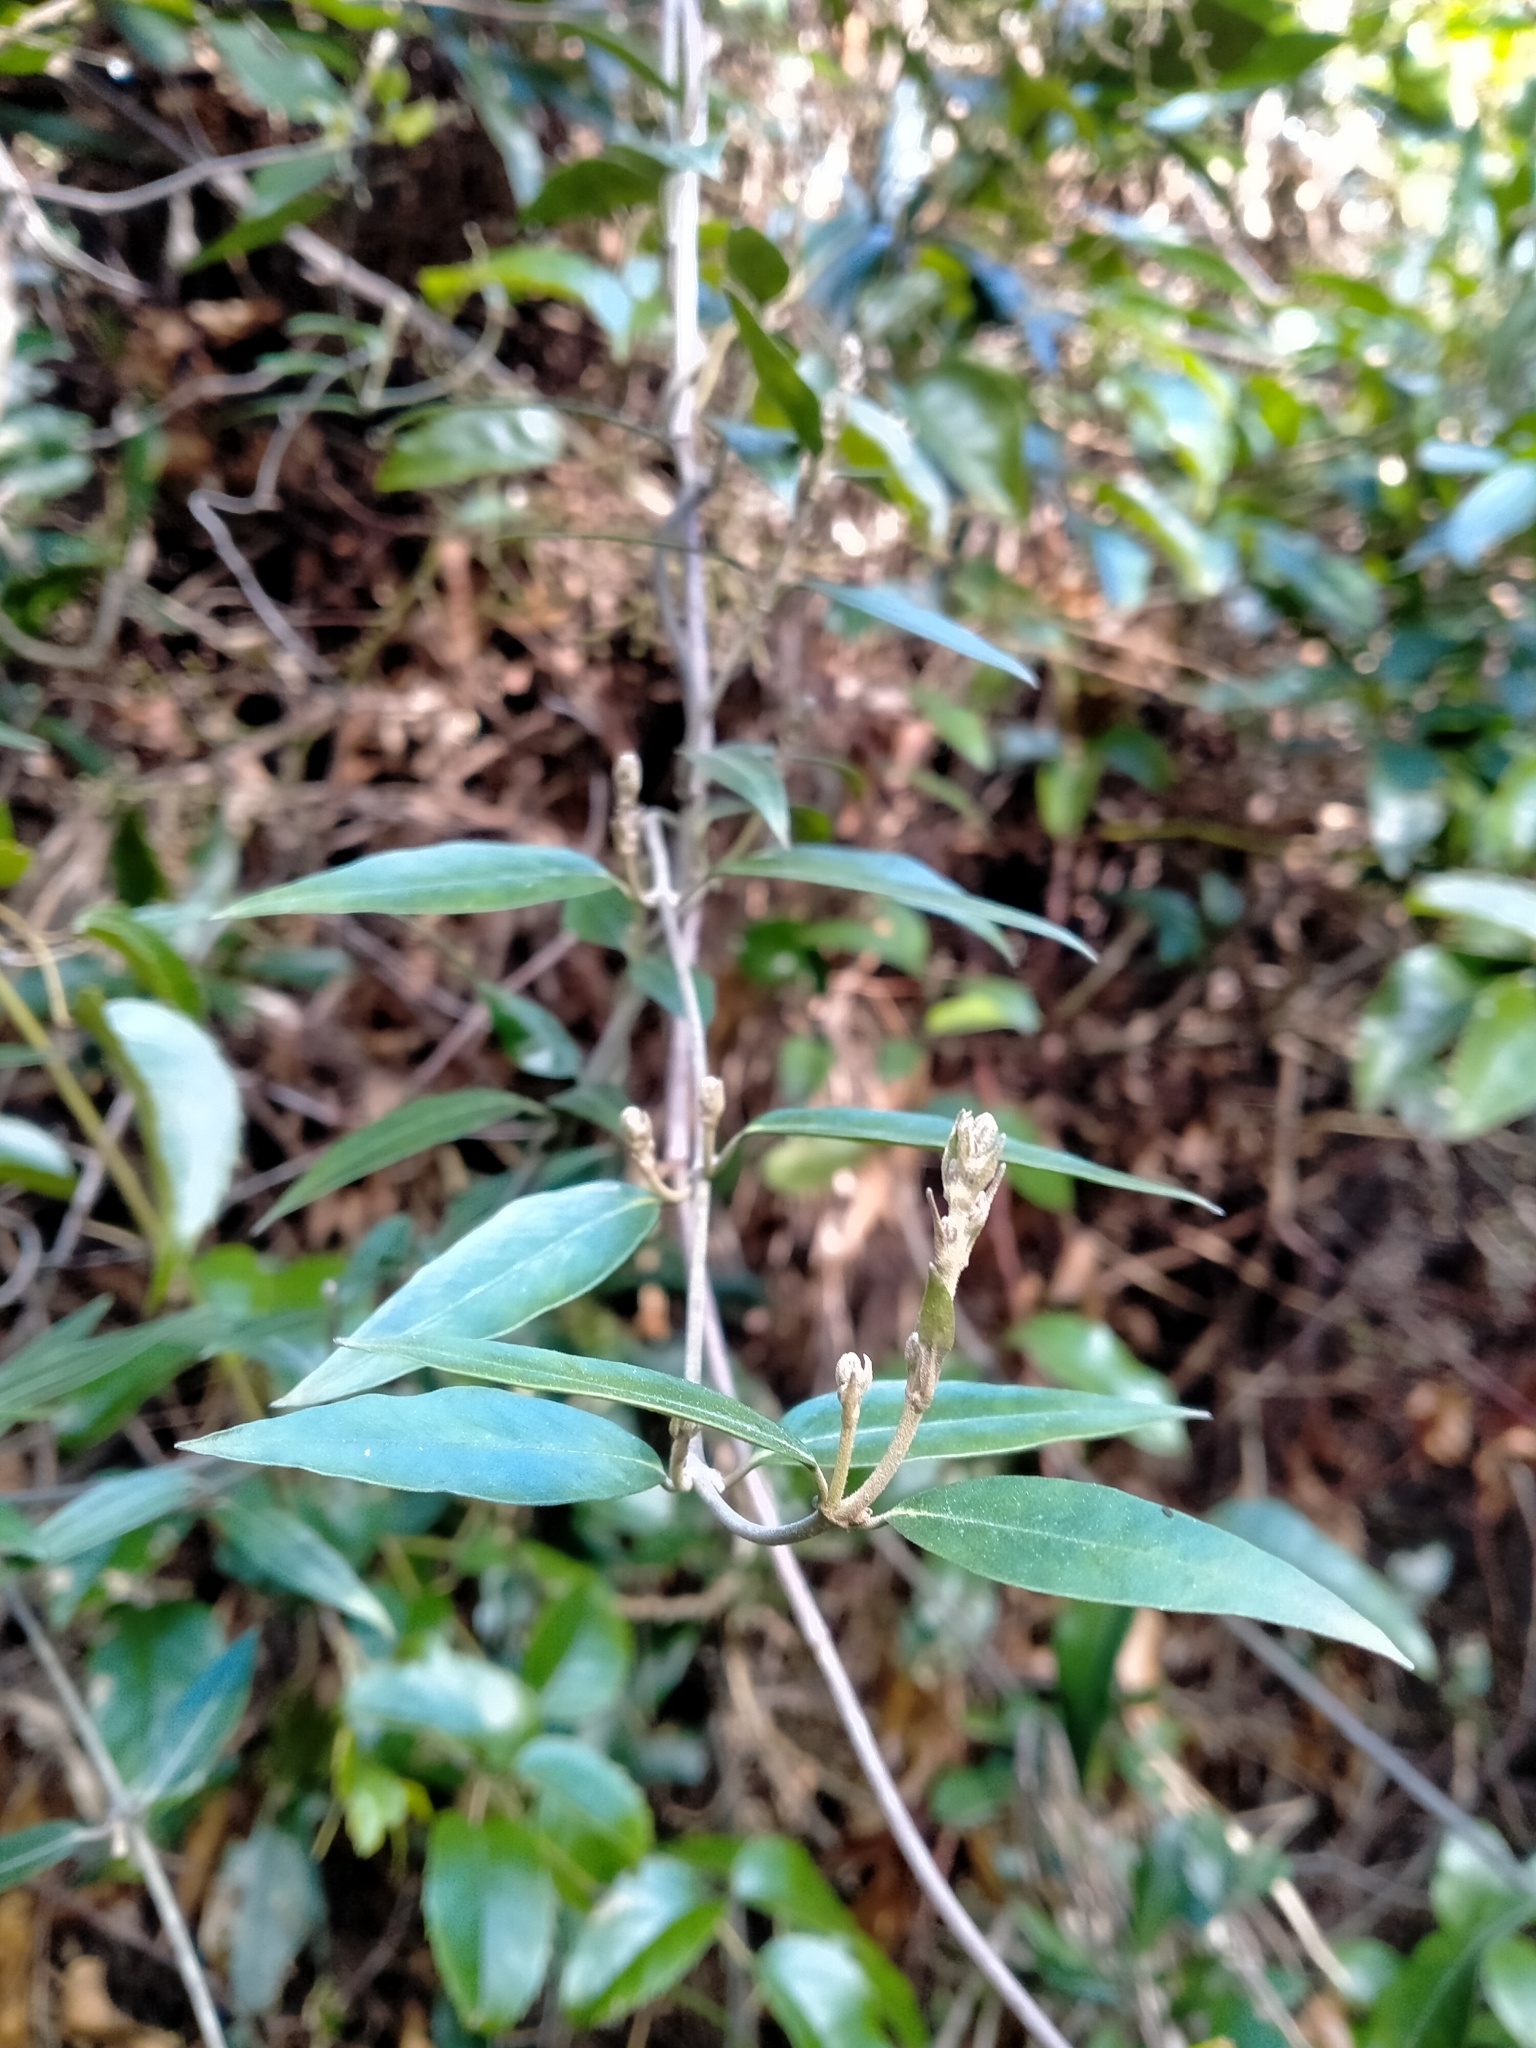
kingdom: Plantae
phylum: Tracheophyta
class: Magnoliopsida
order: Gentianales
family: Apocynaceae
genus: Parsonsia
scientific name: Parsonsia heterophylla
